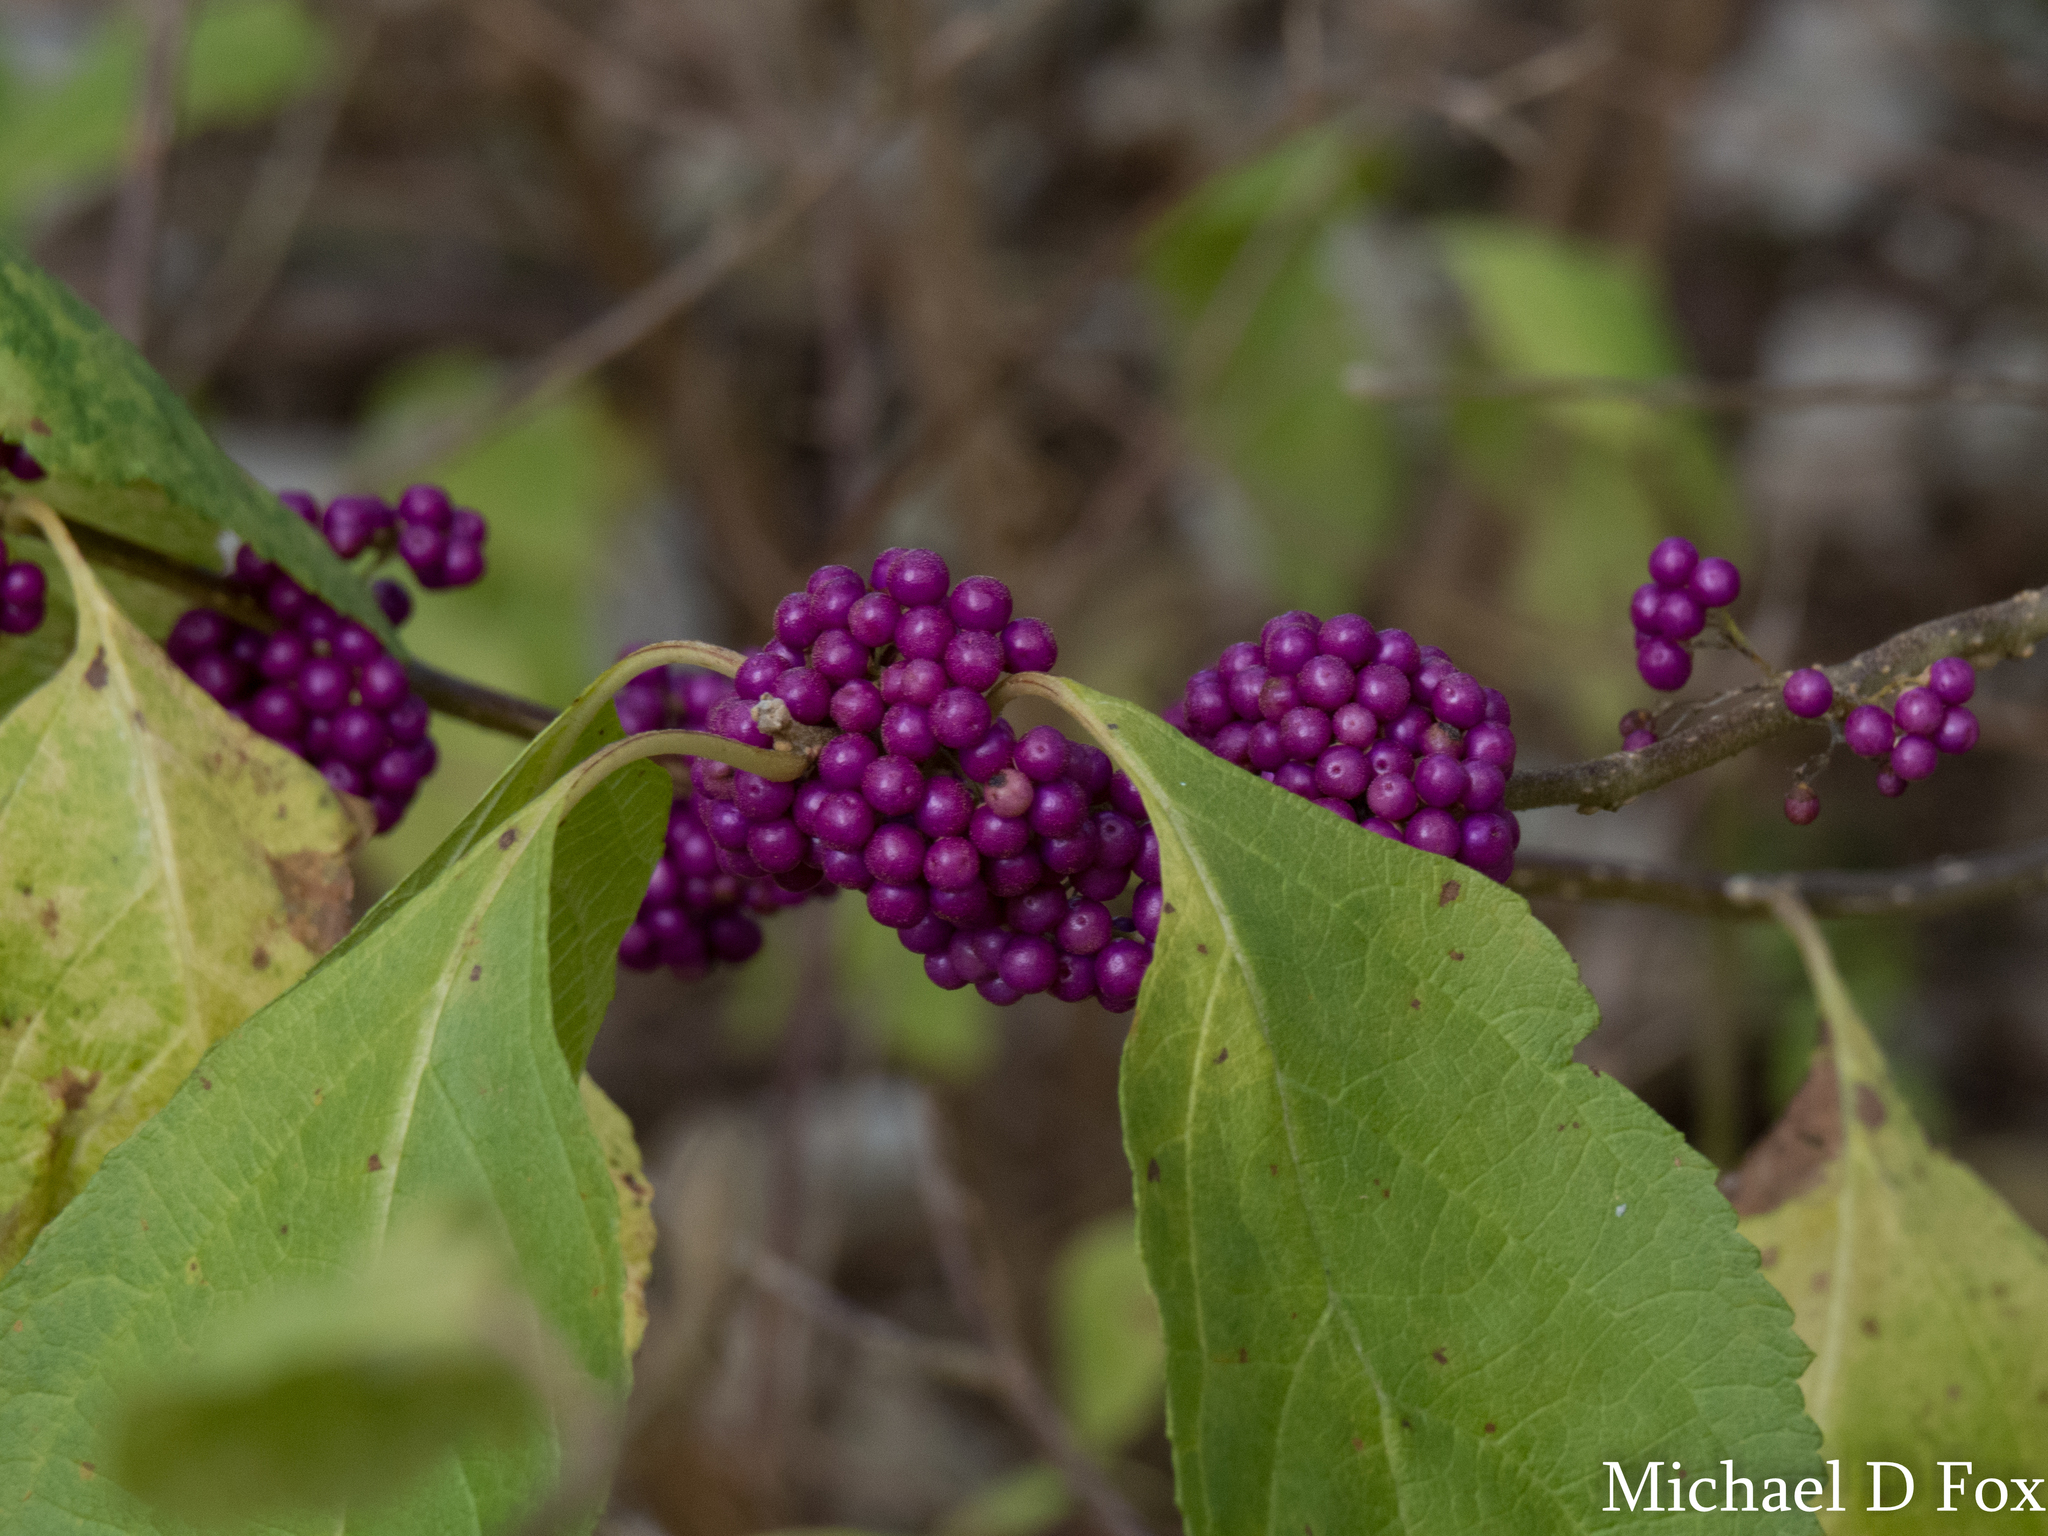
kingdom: Plantae
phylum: Tracheophyta
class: Magnoliopsida
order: Lamiales
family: Lamiaceae
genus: Callicarpa
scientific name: Callicarpa americana
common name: American beautyberry
